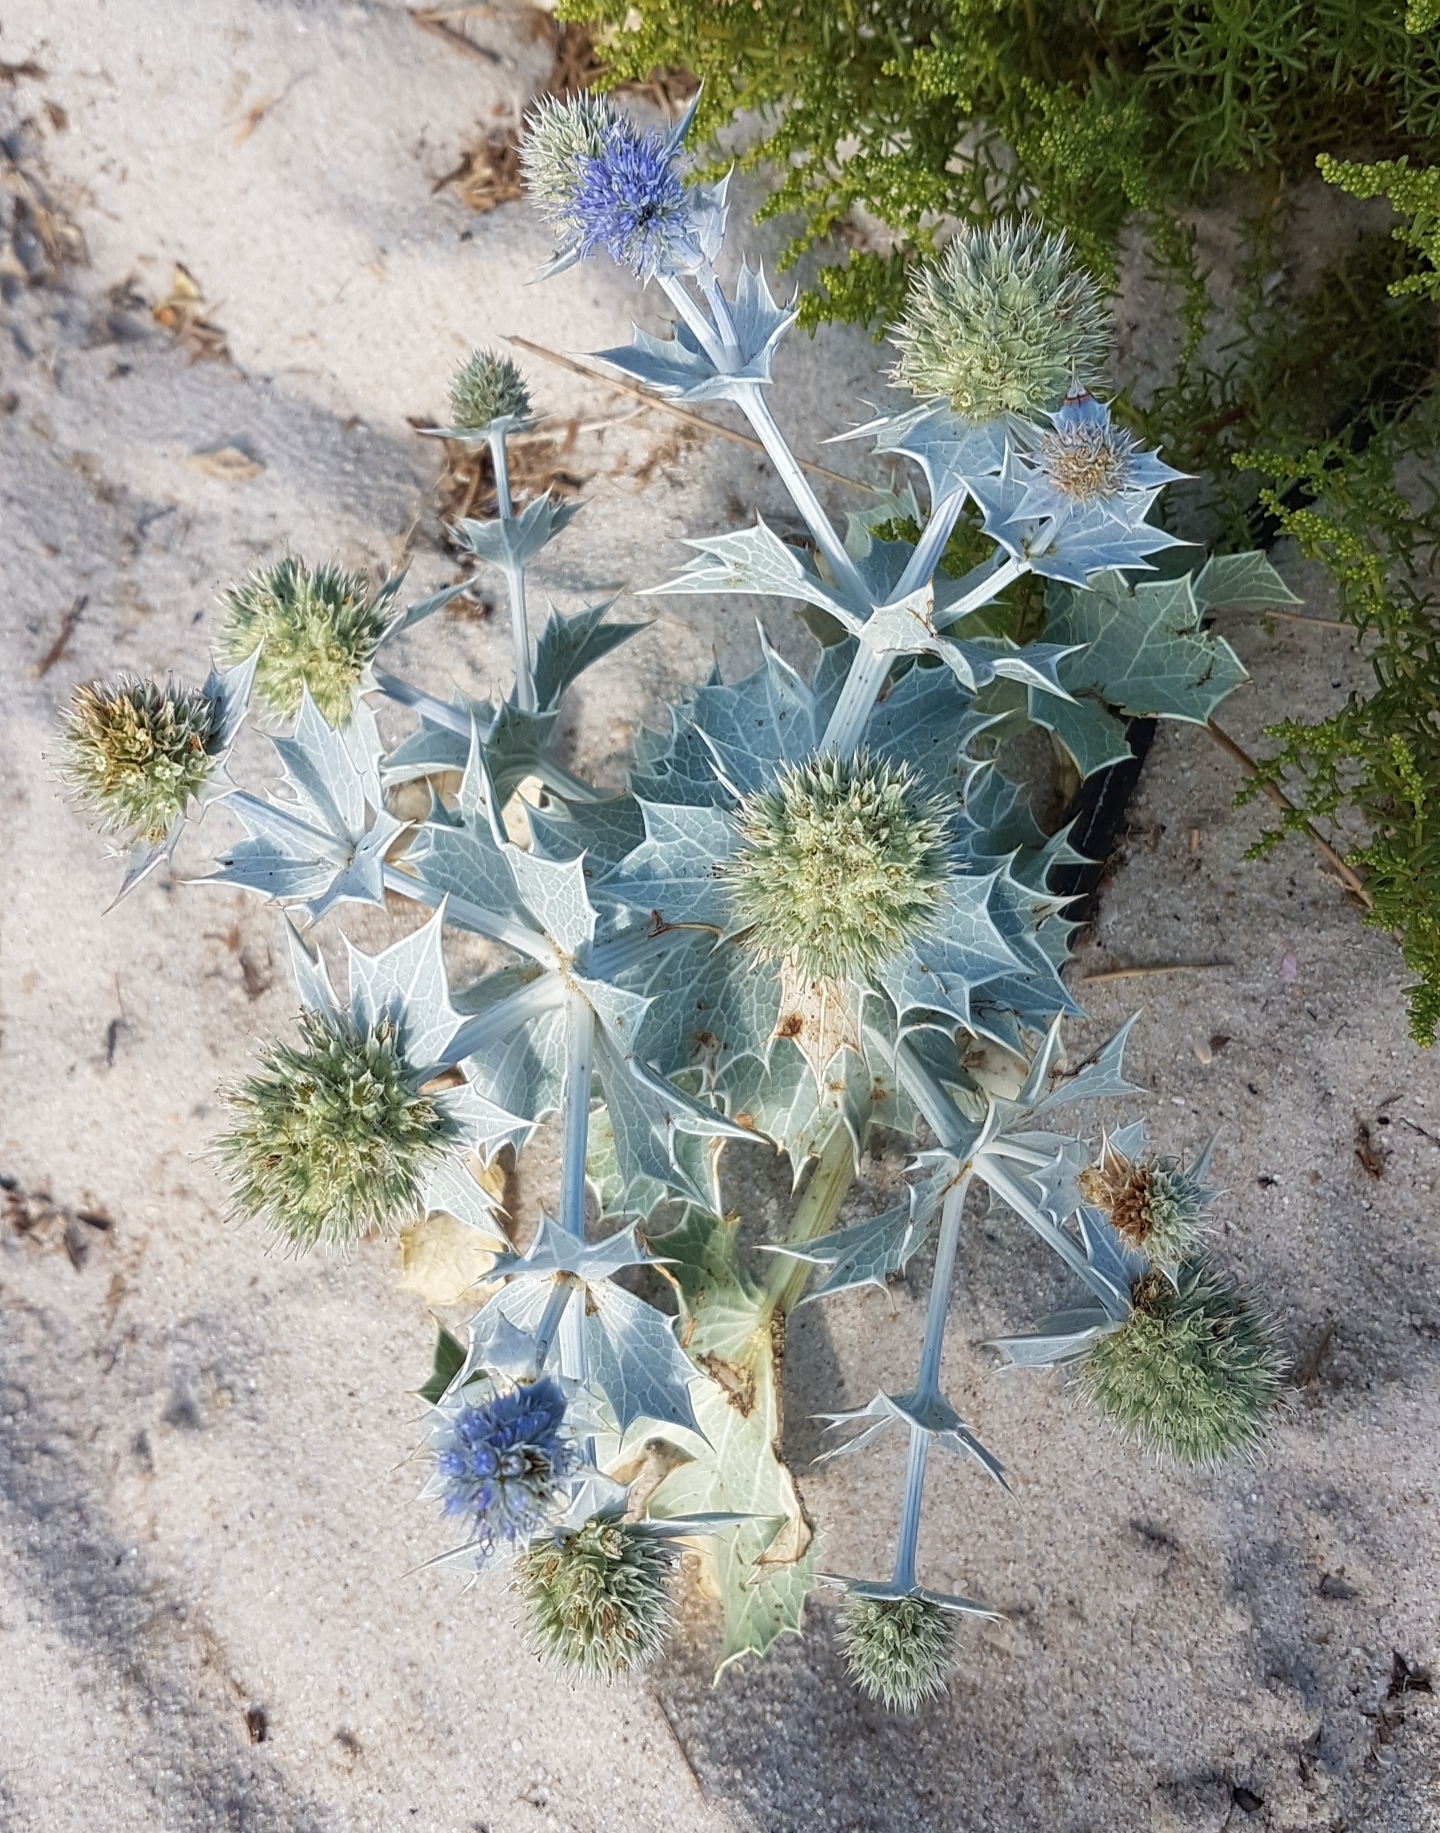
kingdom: Plantae
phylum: Tracheophyta
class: Magnoliopsida
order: Apiales
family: Apiaceae
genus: Eryngium
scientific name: Eryngium maritimum
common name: Sea-holly
